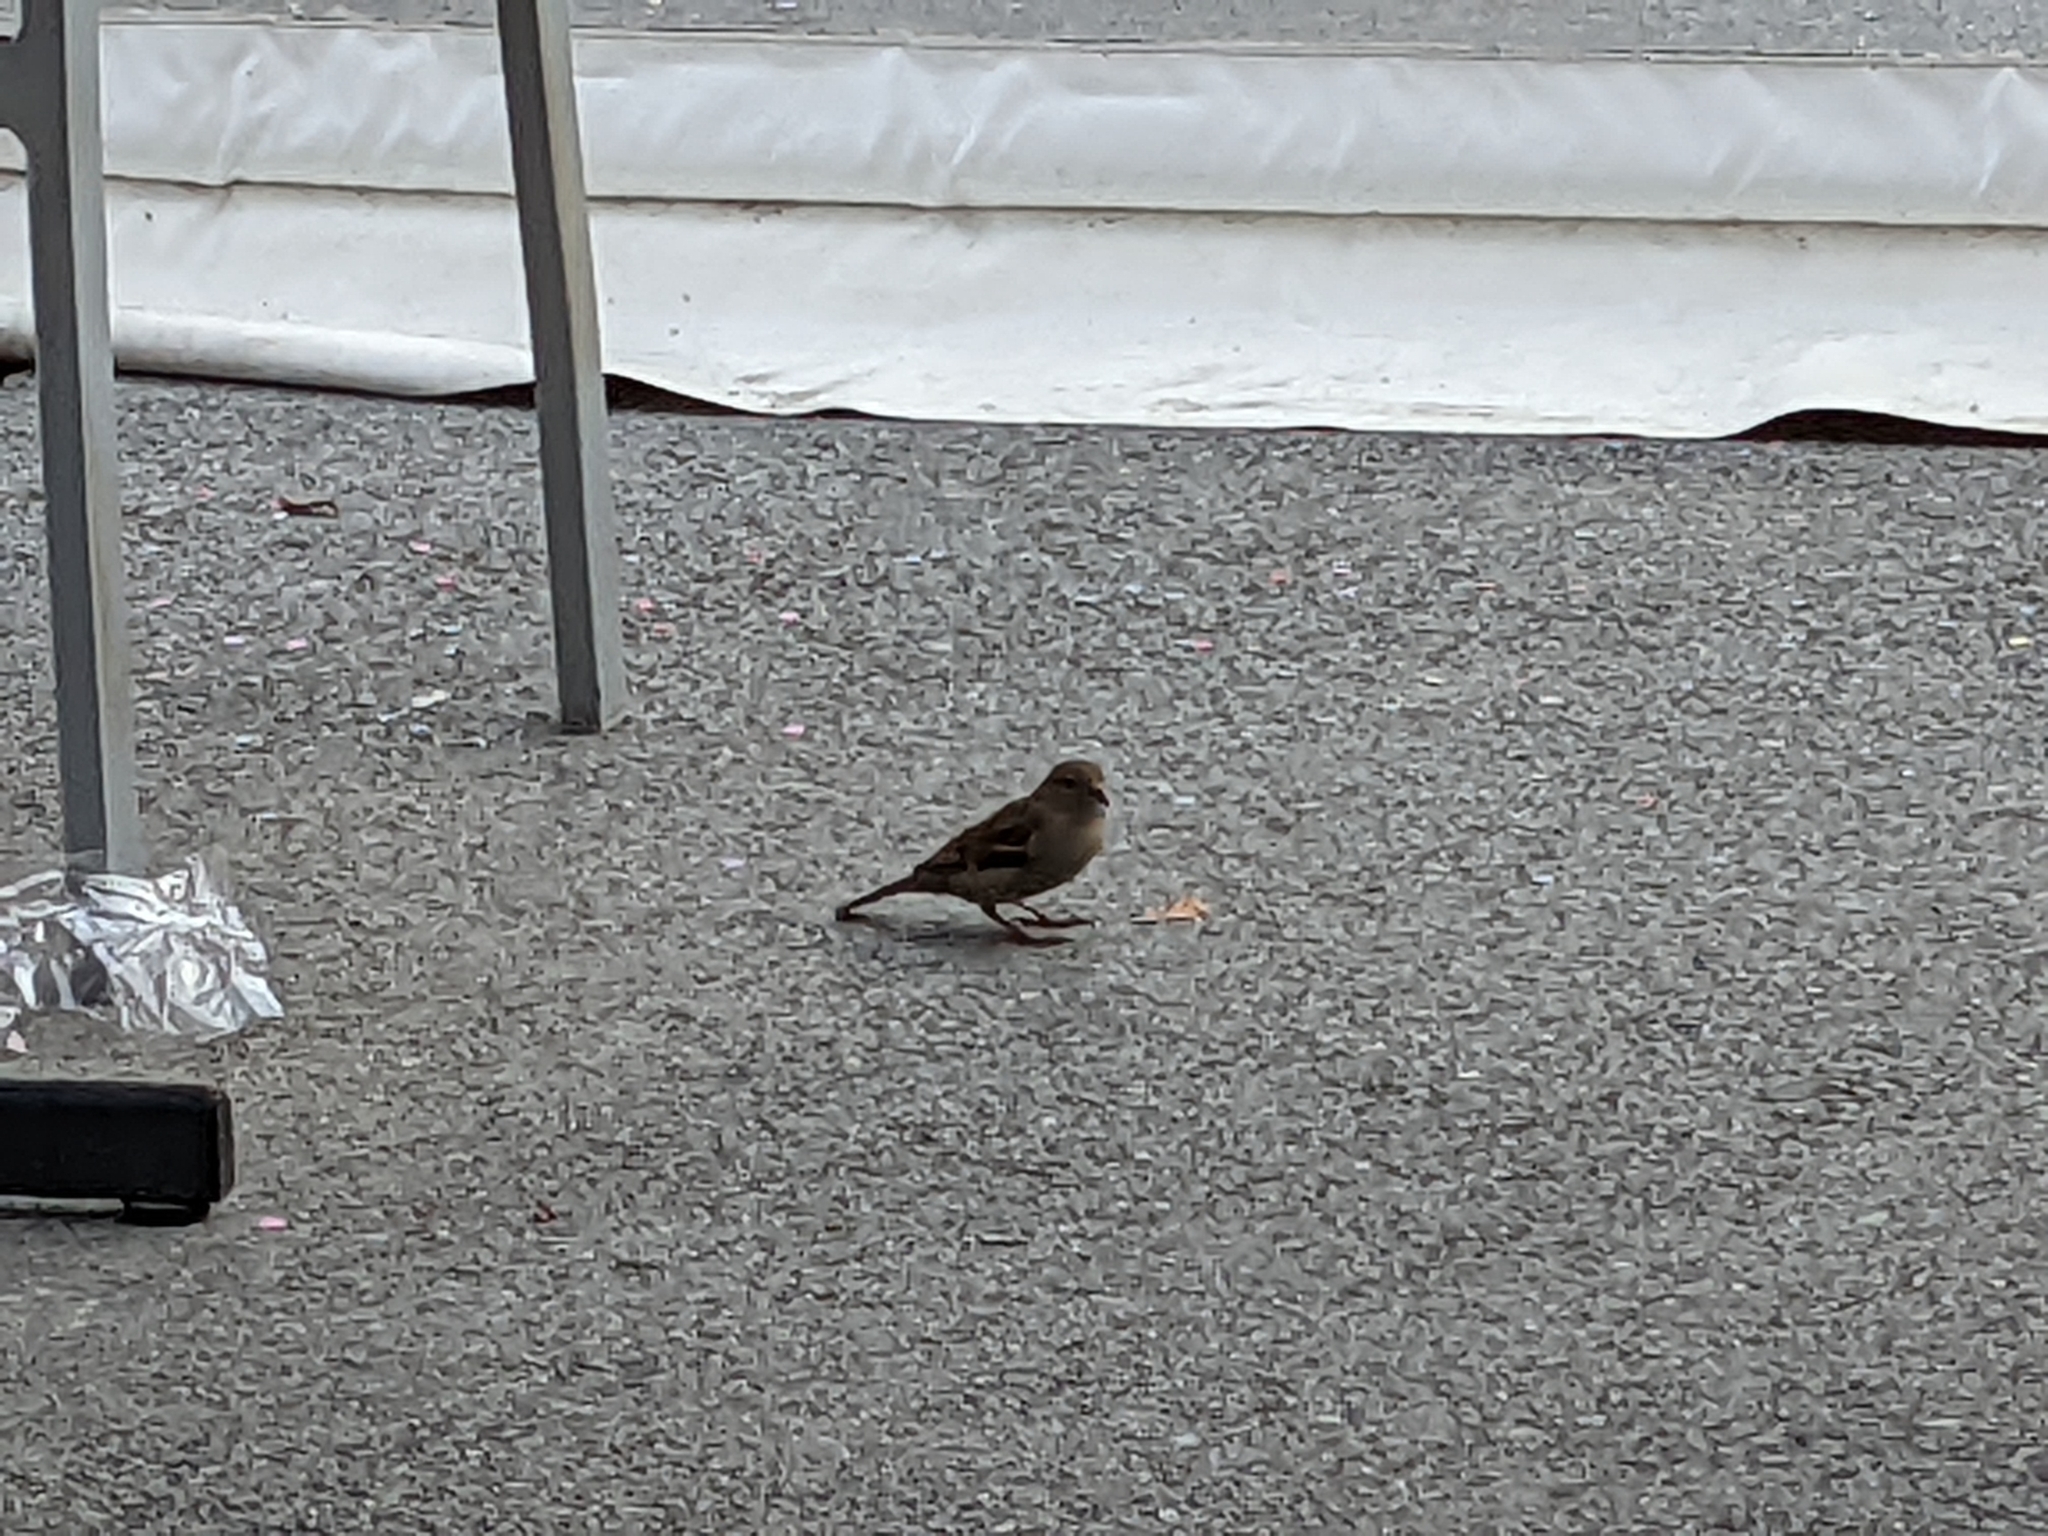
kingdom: Animalia
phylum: Chordata
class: Aves
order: Passeriformes
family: Fringillidae
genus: Fringilla
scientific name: Fringilla coelebs
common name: Common chaffinch
